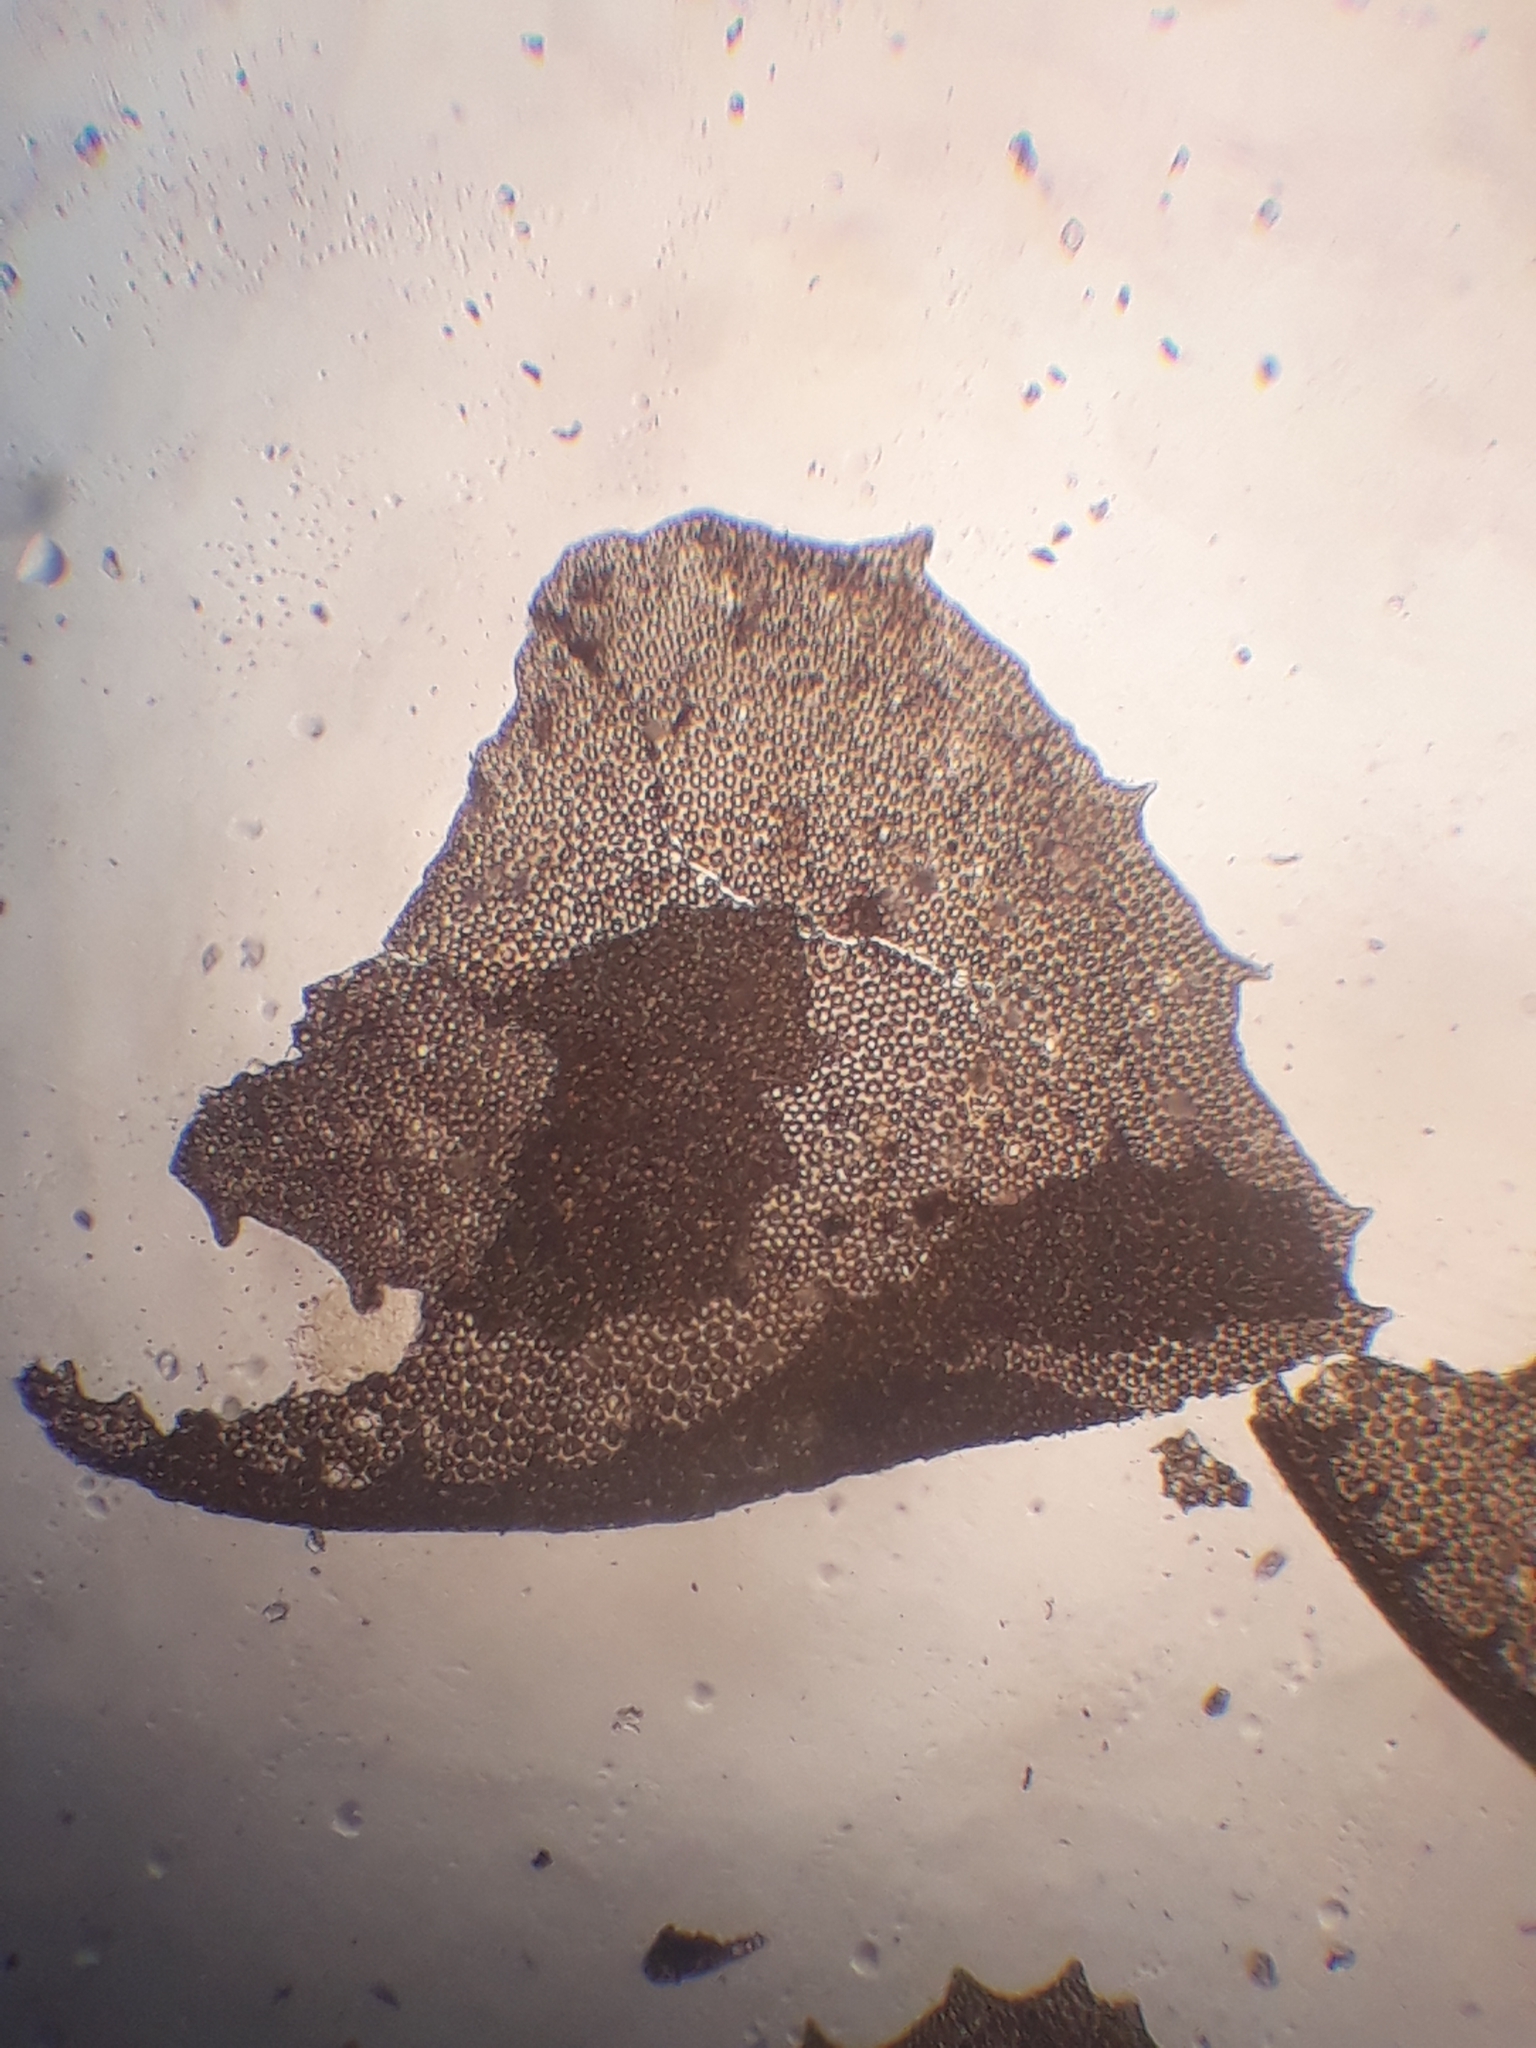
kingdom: Plantae
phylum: Marchantiophyta
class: Jungermanniopsida
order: Jungermanniales
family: Plagiochilaceae
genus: Plagiochila
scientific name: Plagiochila circinalis
